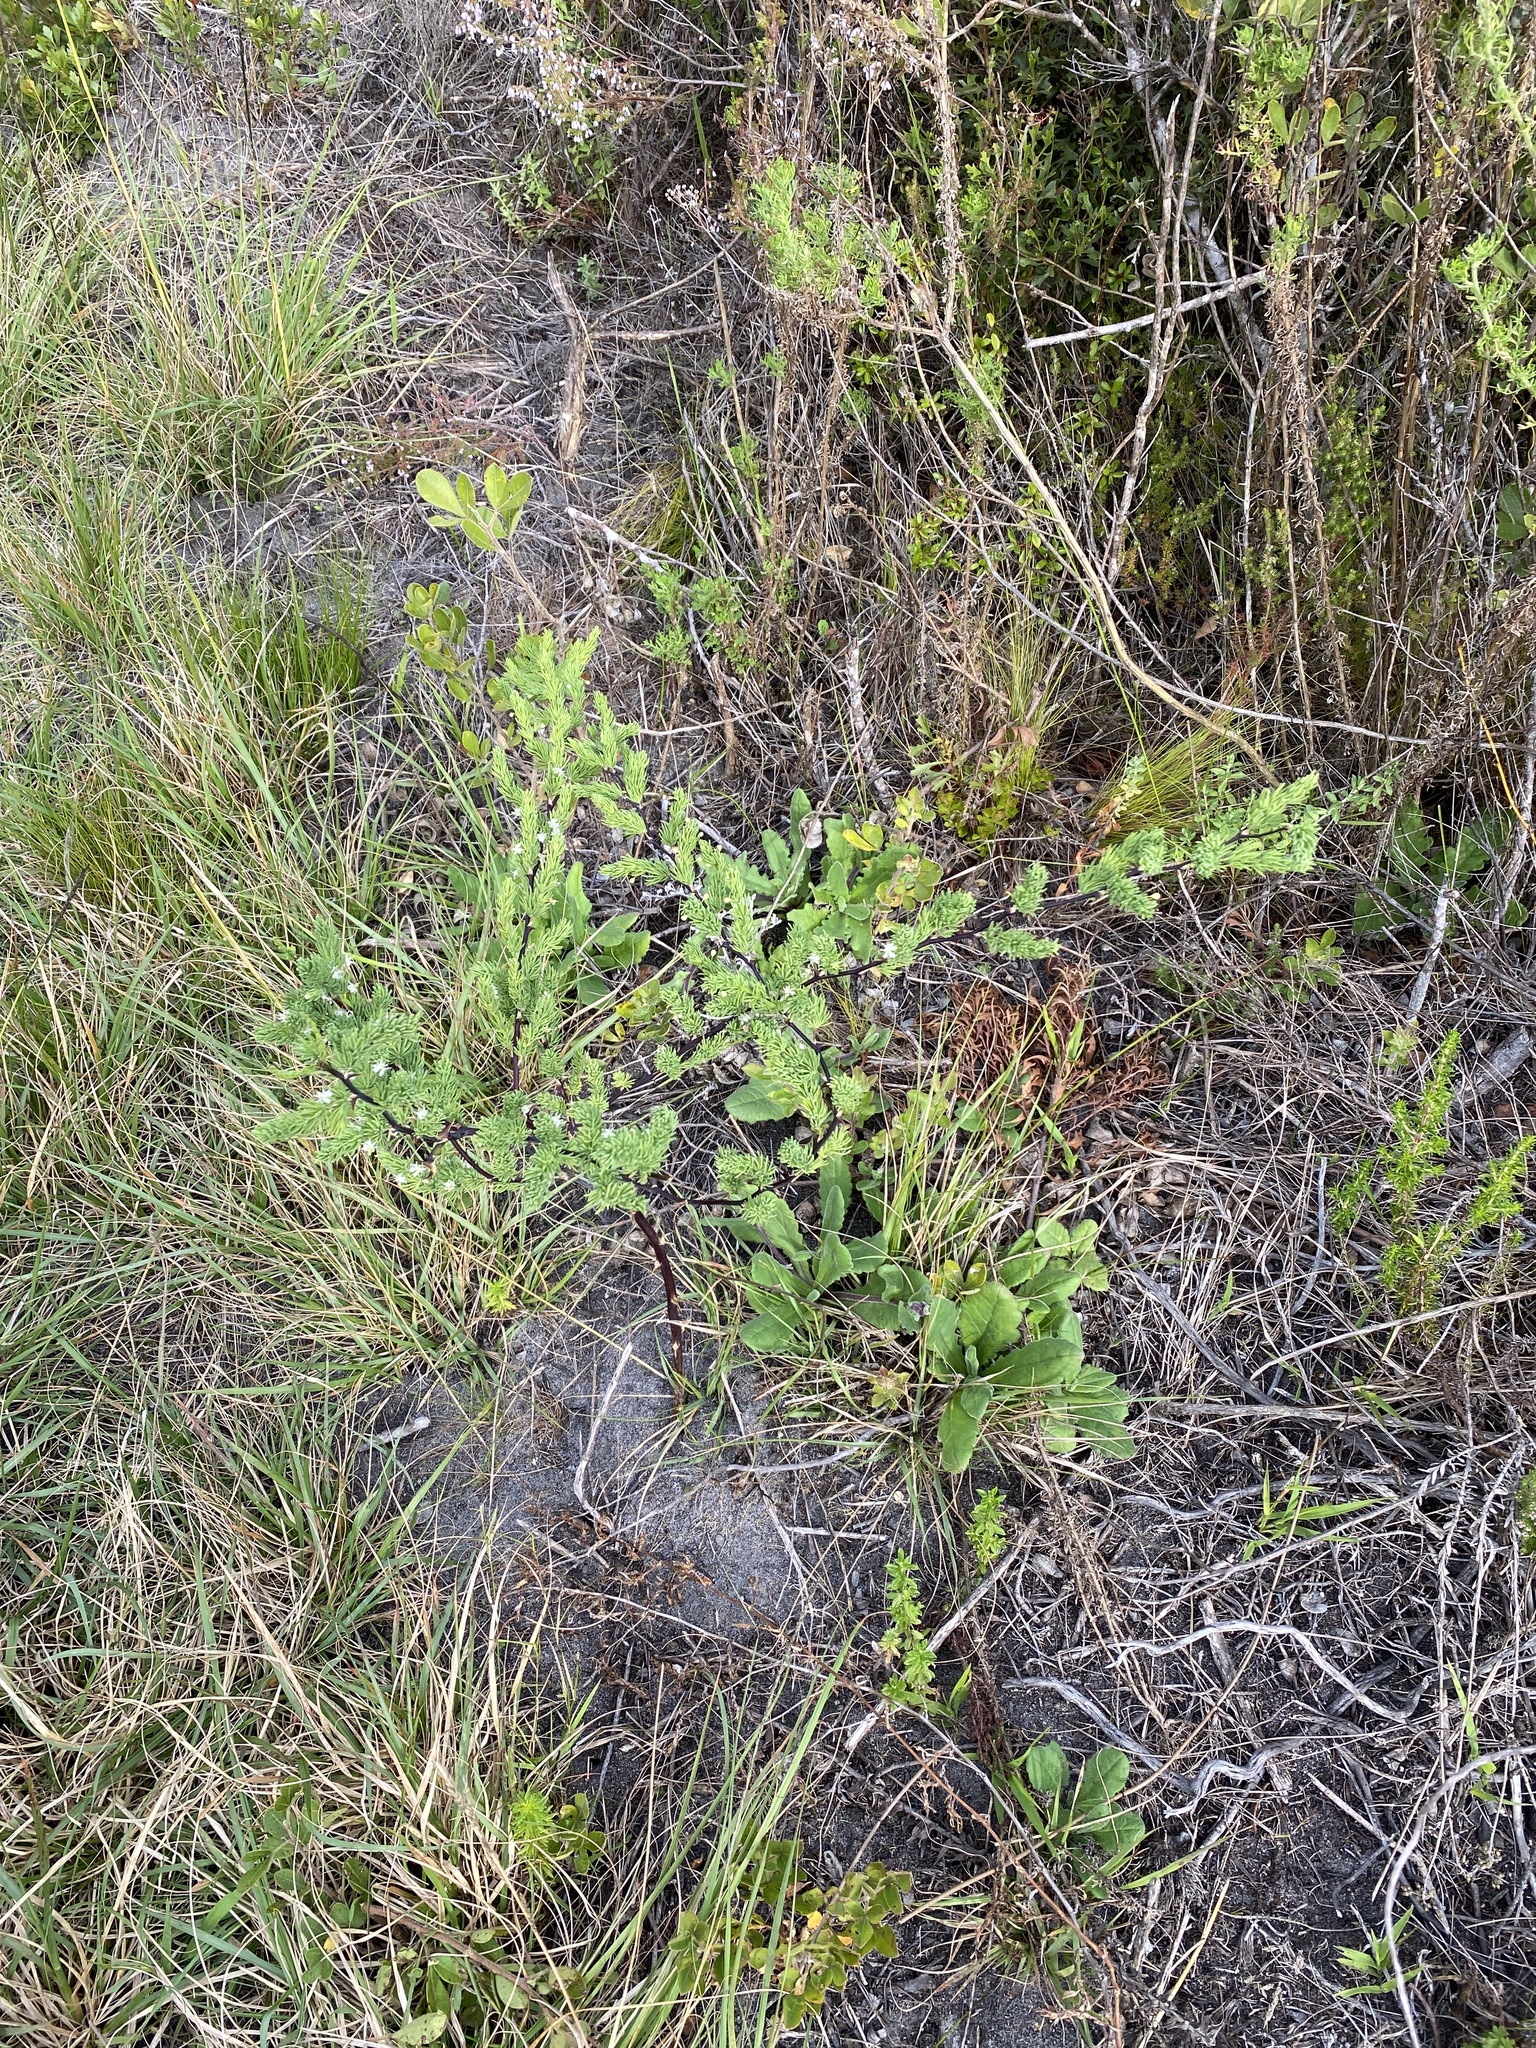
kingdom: Plantae
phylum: Tracheophyta
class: Liliopsida
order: Asparagales
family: Asparagaceae
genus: Asparagus
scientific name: Asparagus rubicundus
